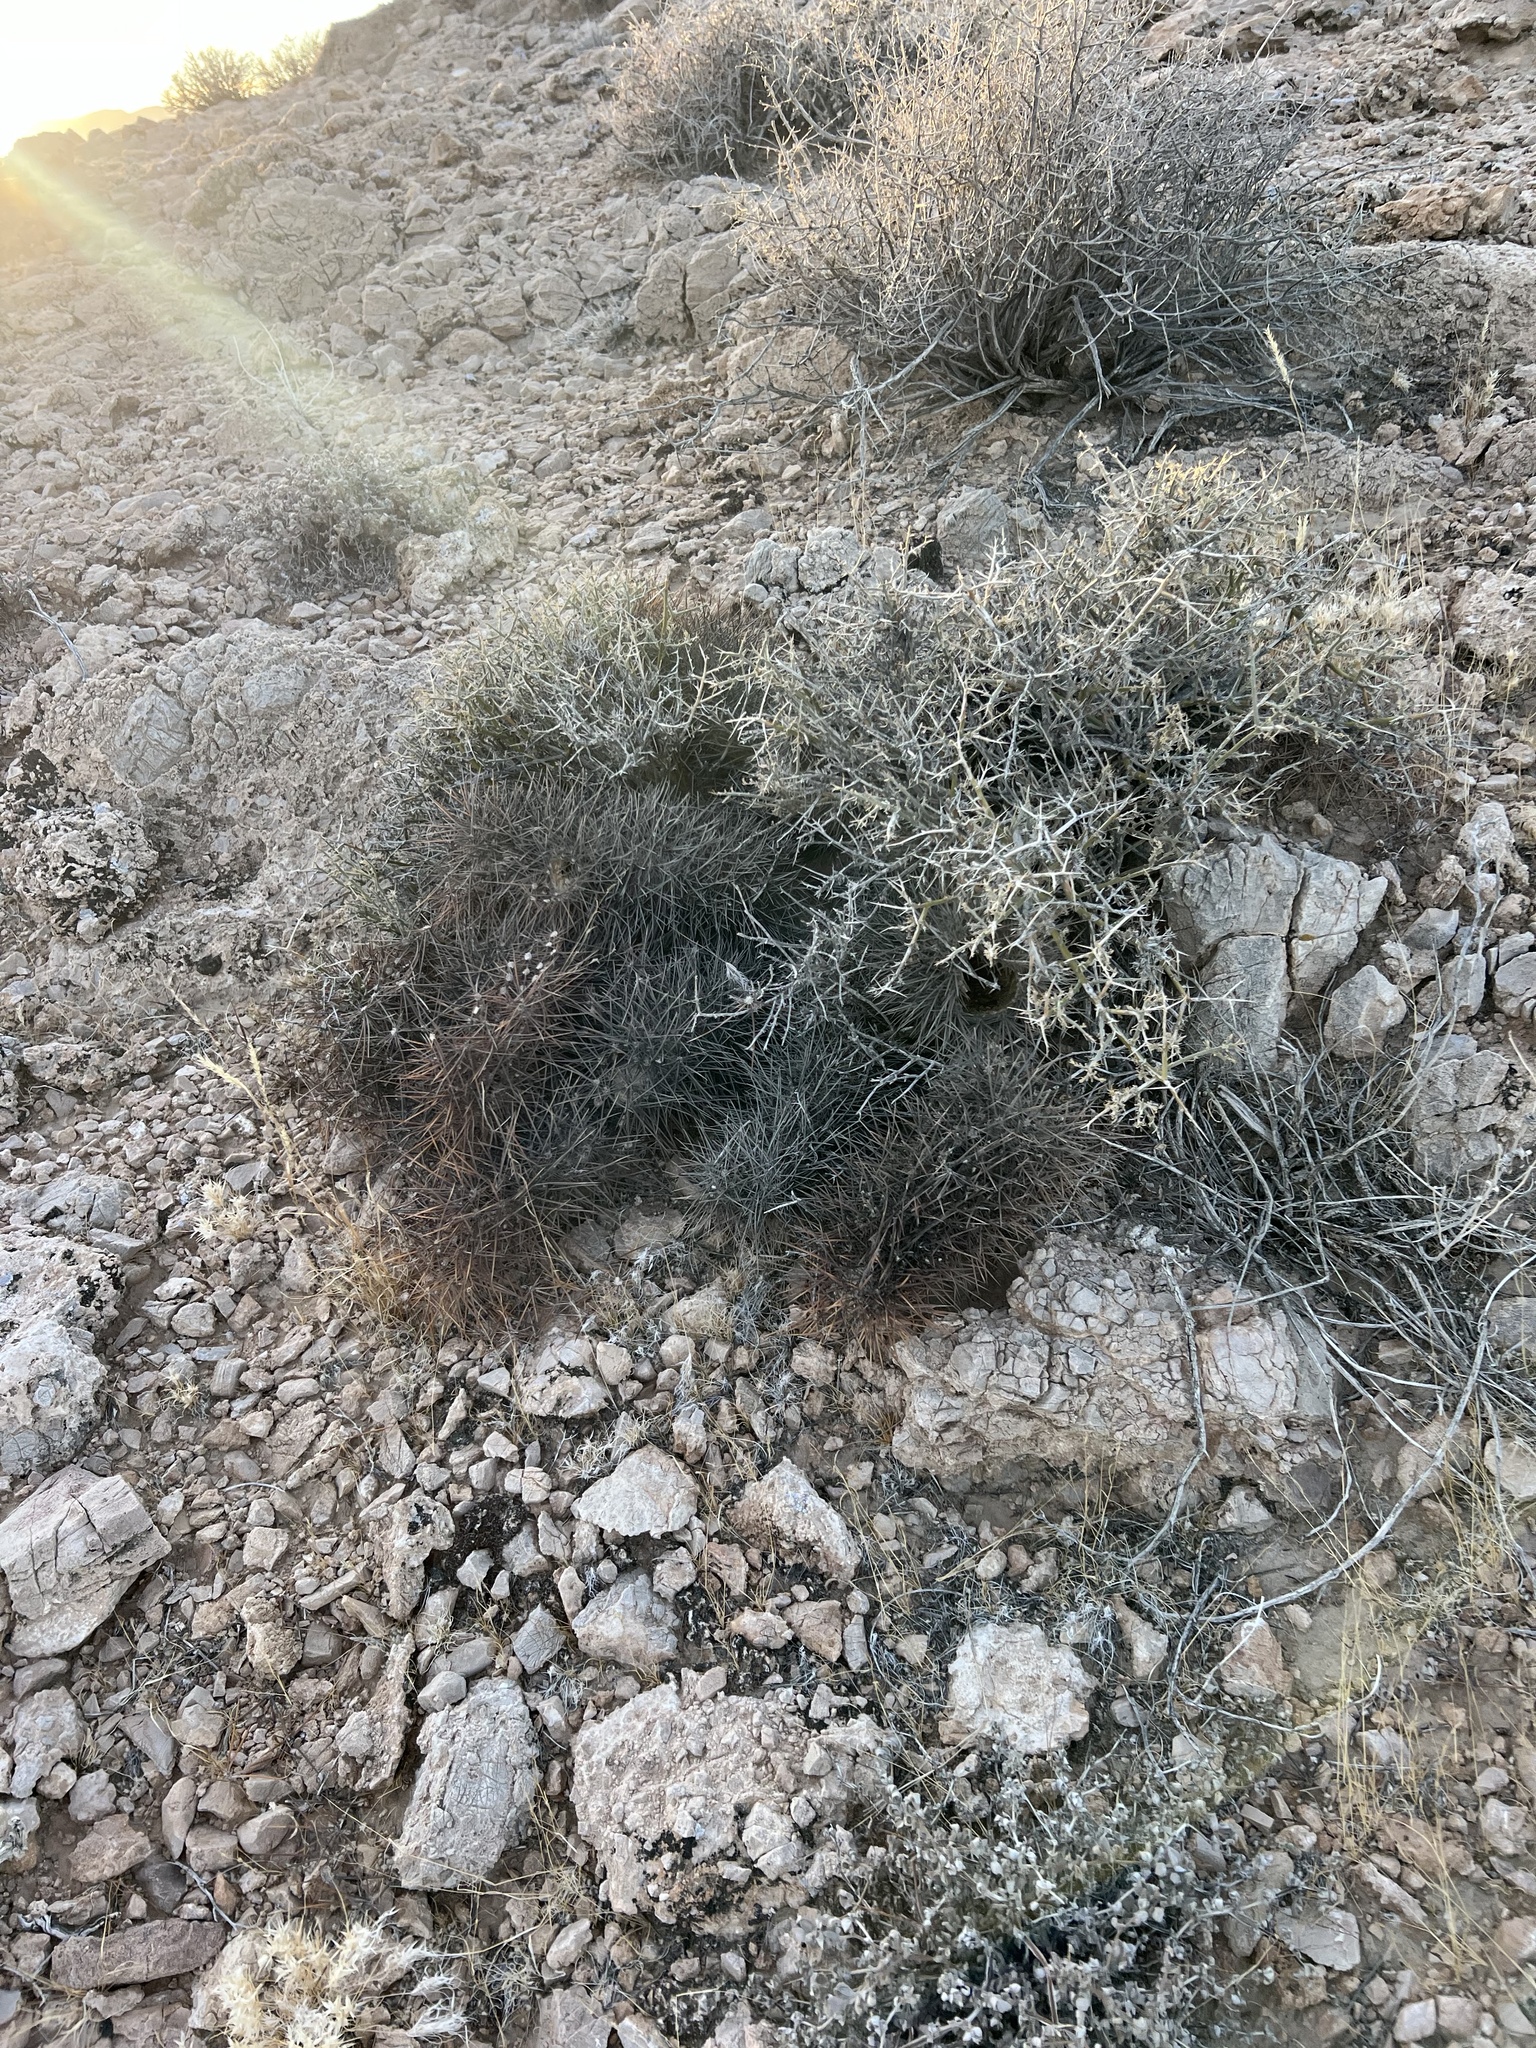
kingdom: Plantae
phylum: Tracheophyta
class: Magnoliopsida
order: Caryophyllales
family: Cactaceae
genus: Echinocereus
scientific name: Echinocereus engelmannii
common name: Engelmann's hedgehog cactus
